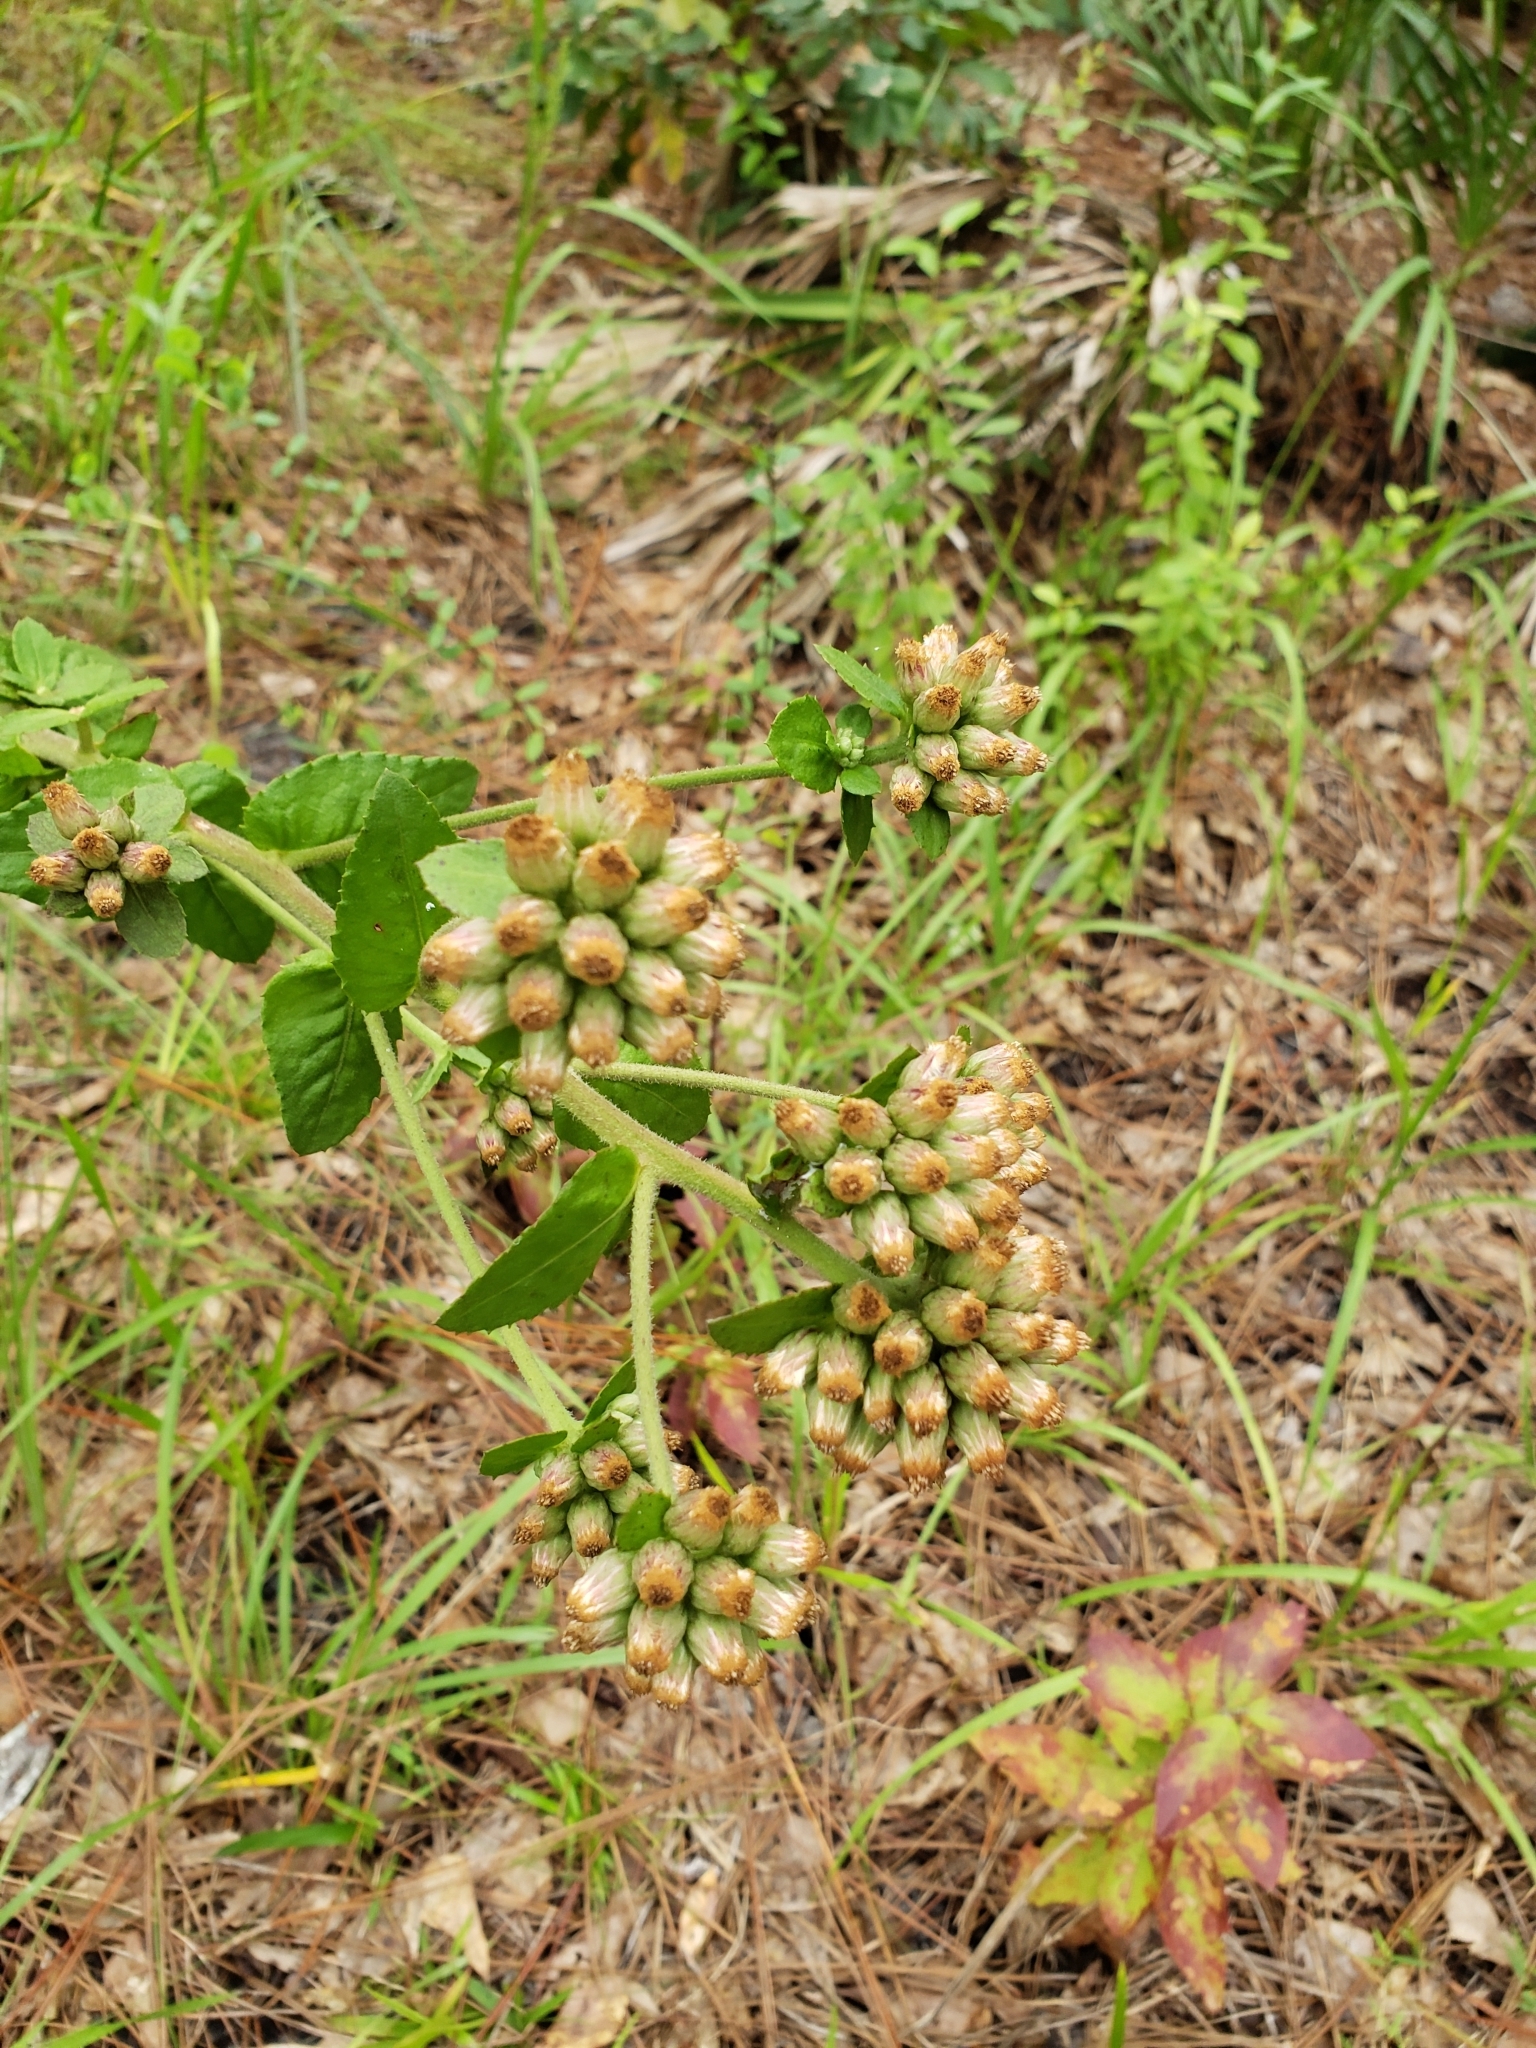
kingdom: Plantae
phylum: Tracheophyta
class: Magnoliopsida
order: Asterales
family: Asteraceae
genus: Pluchea
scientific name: Pluchea foetida
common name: Stinking camphorweed
